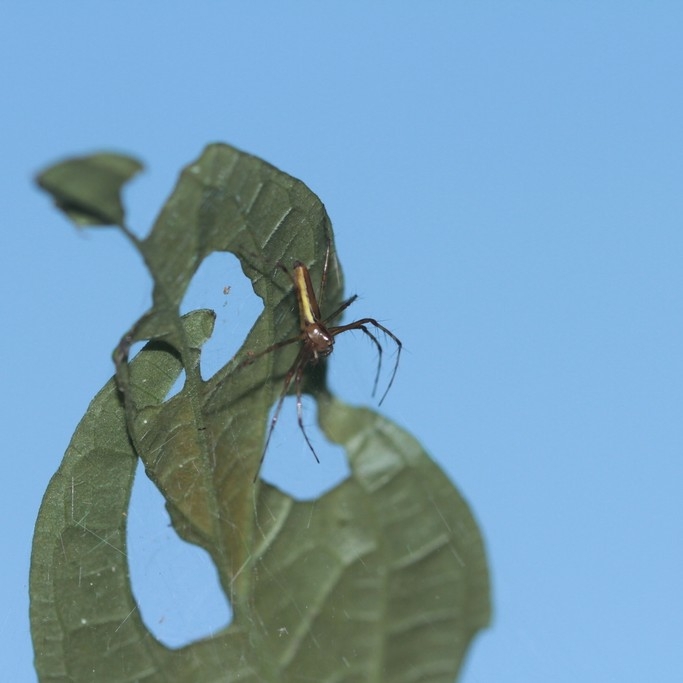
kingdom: Animalia
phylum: Arthropoda
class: Arachnida
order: Araneae
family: Oxyopidae
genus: Tapinillus
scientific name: Tapinillus longipes
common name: Lynx spiders
